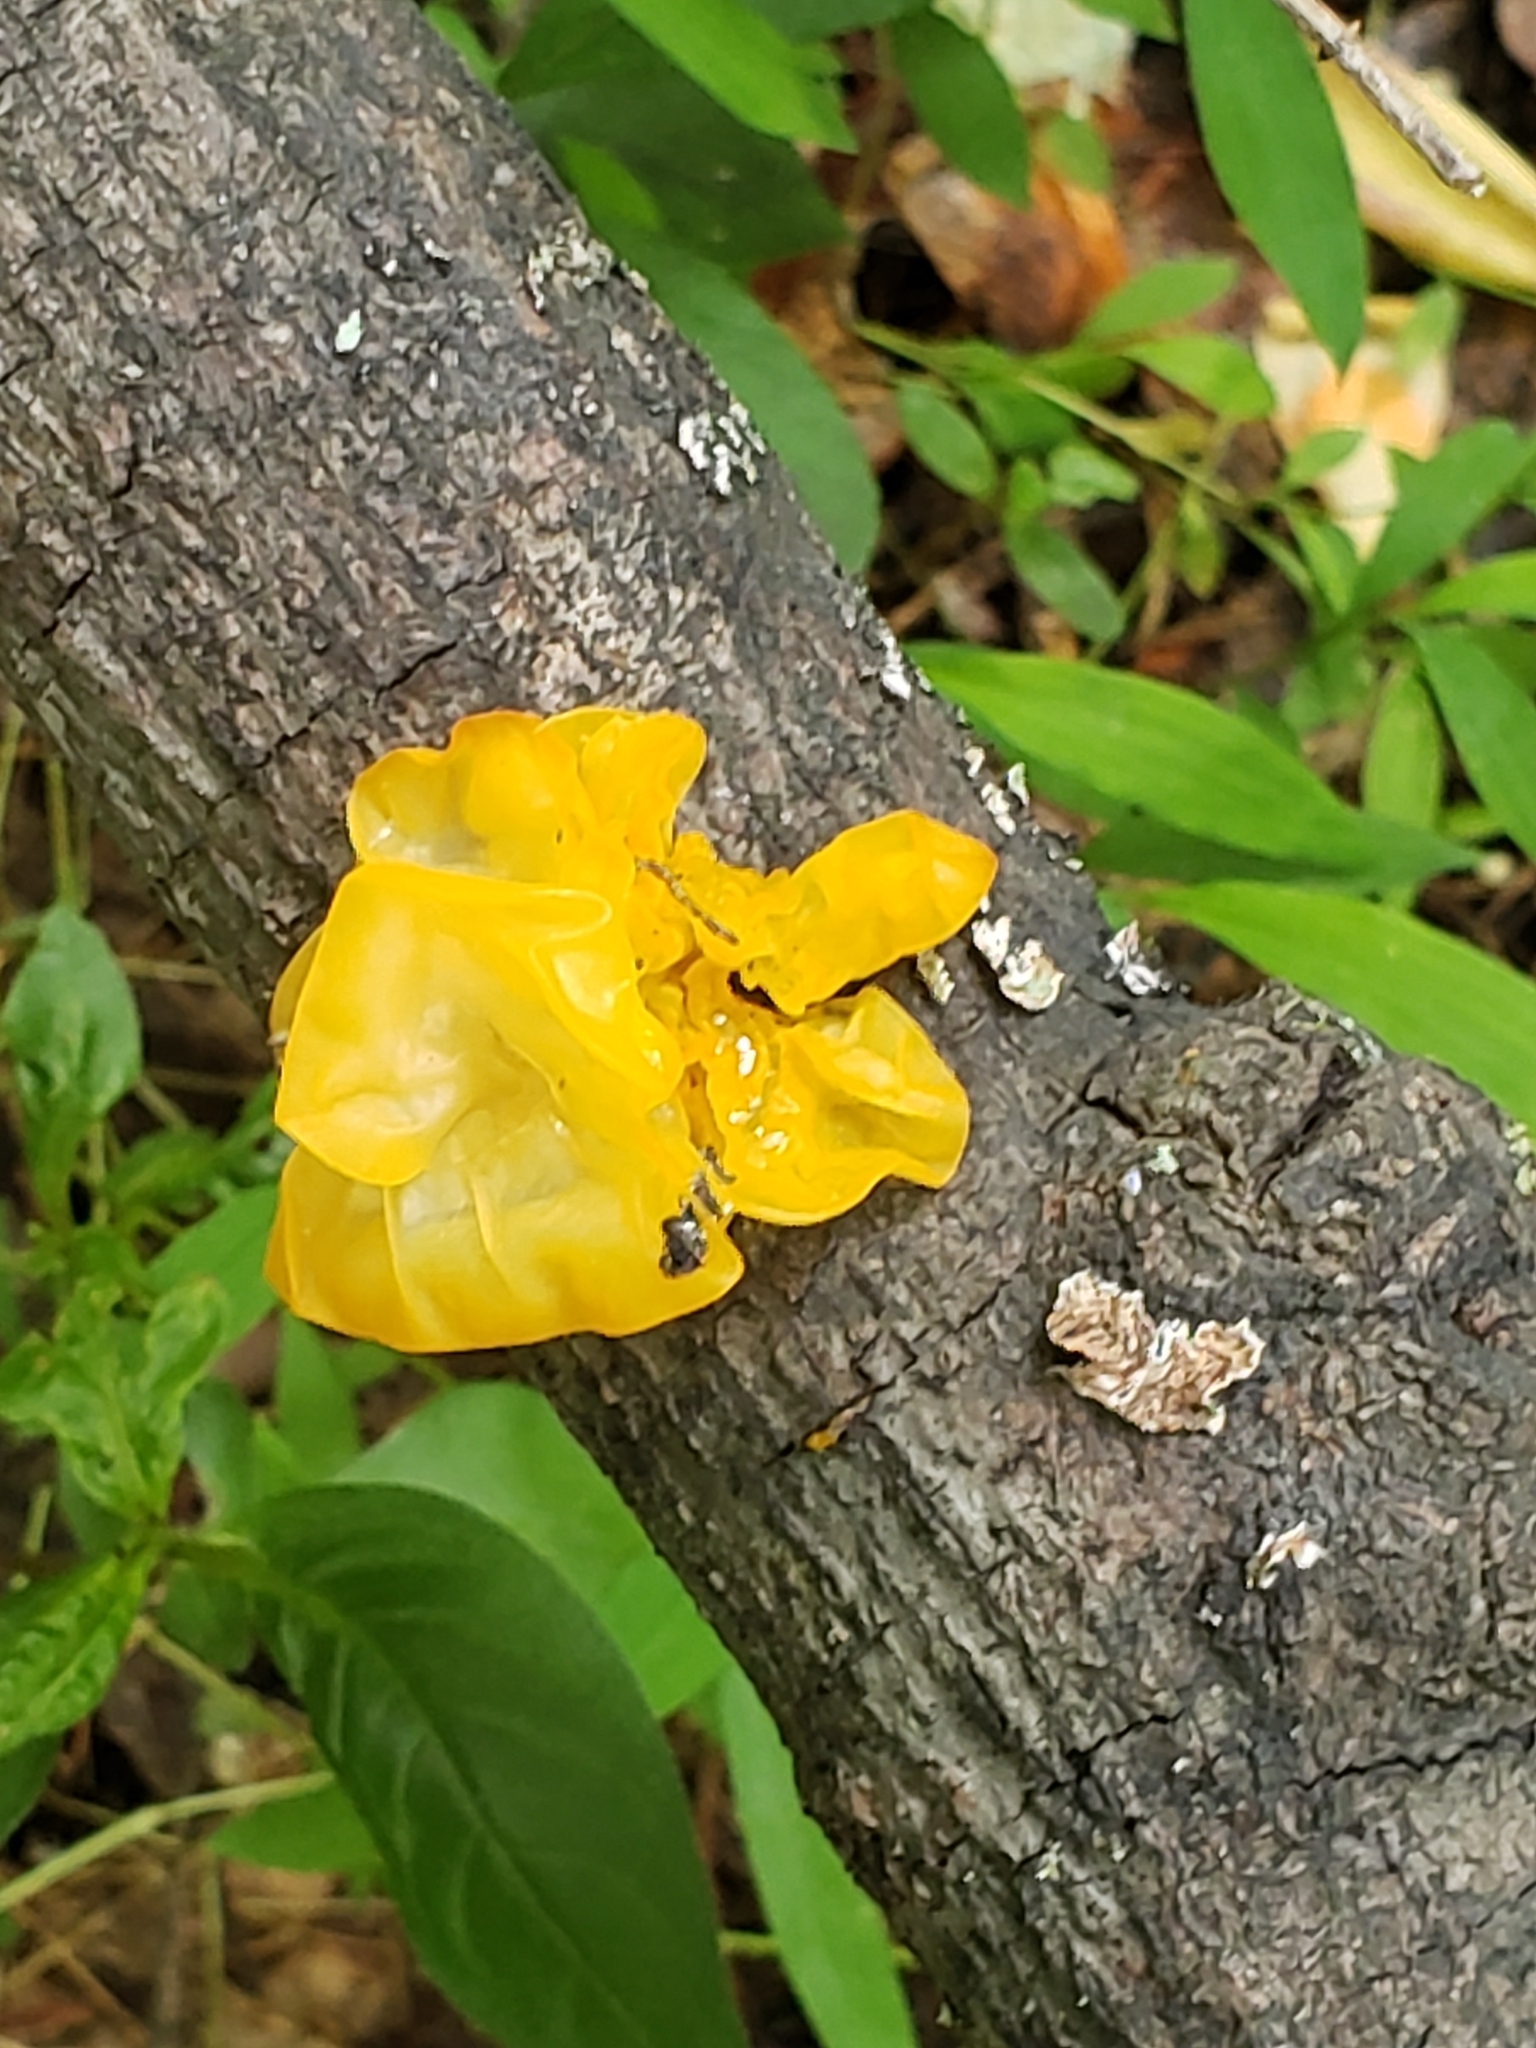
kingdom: Fungi
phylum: Basidiomycota
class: Tremellomycetes
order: Tremellales
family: Tremellaceae
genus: Tremella
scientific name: Tremella mesenterica
